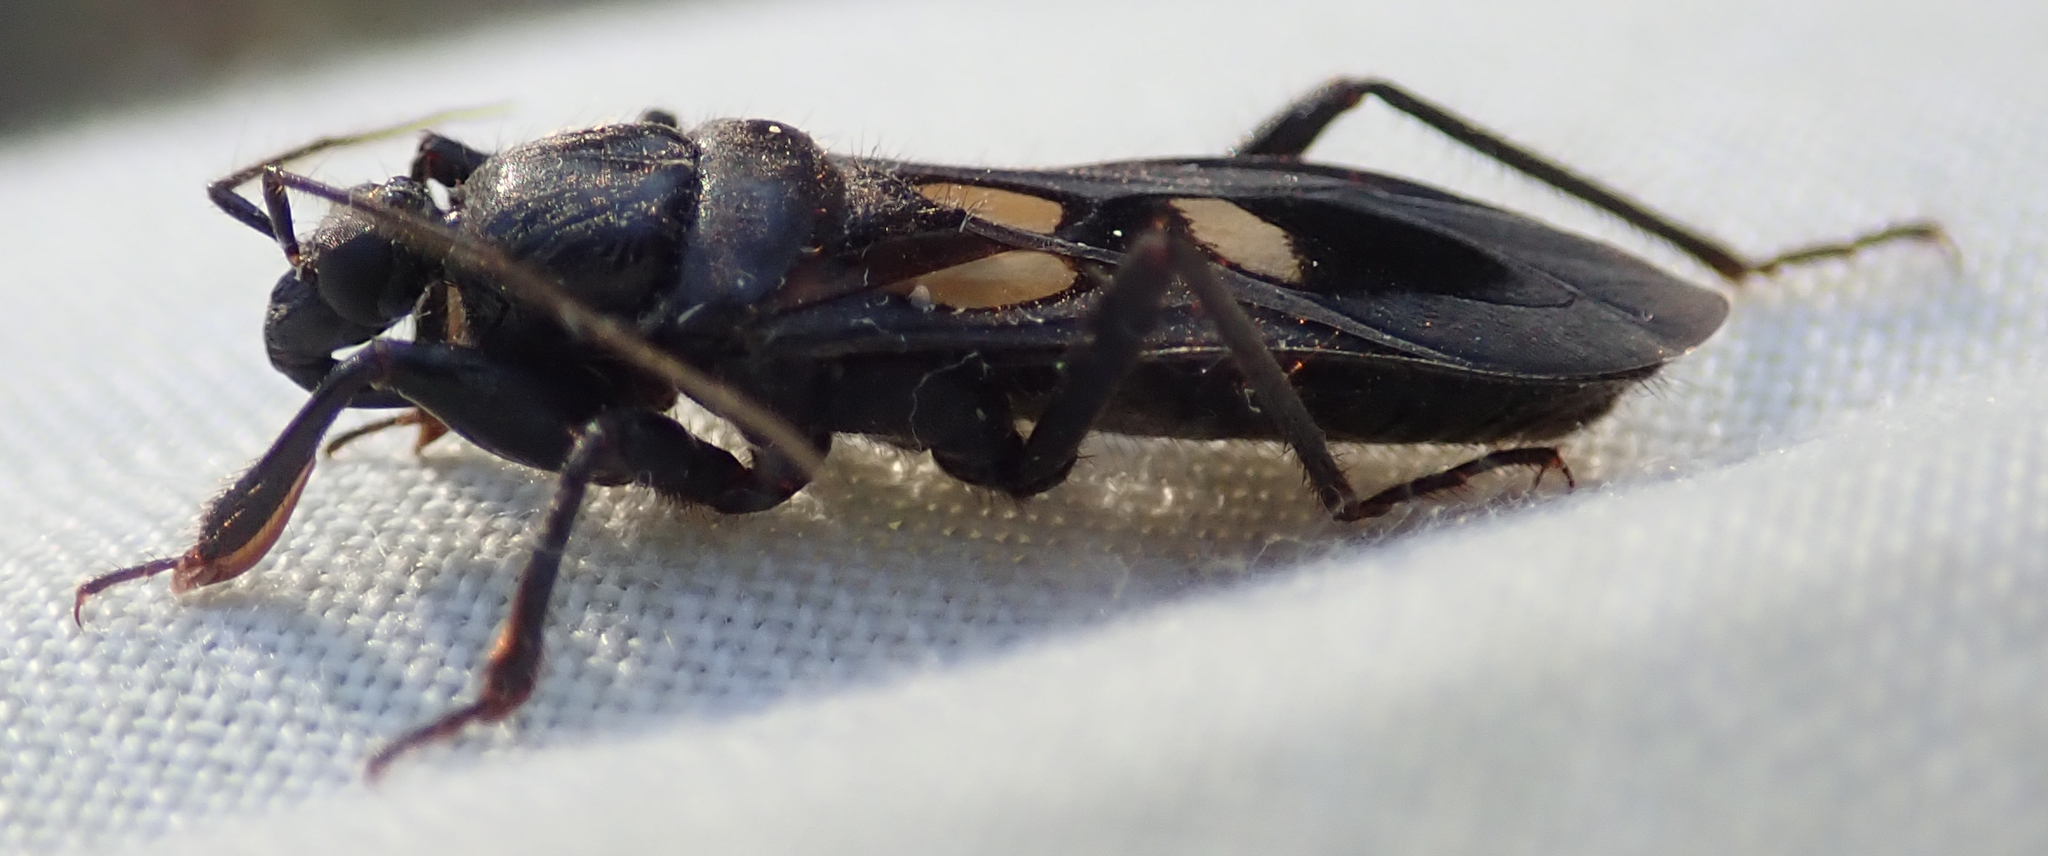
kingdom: Animalia
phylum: Arthropoda
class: Insecta
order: Hemiptera
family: Reduviidae
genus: Ectomocoris
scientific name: Ectomocoris quadrimaculatus
